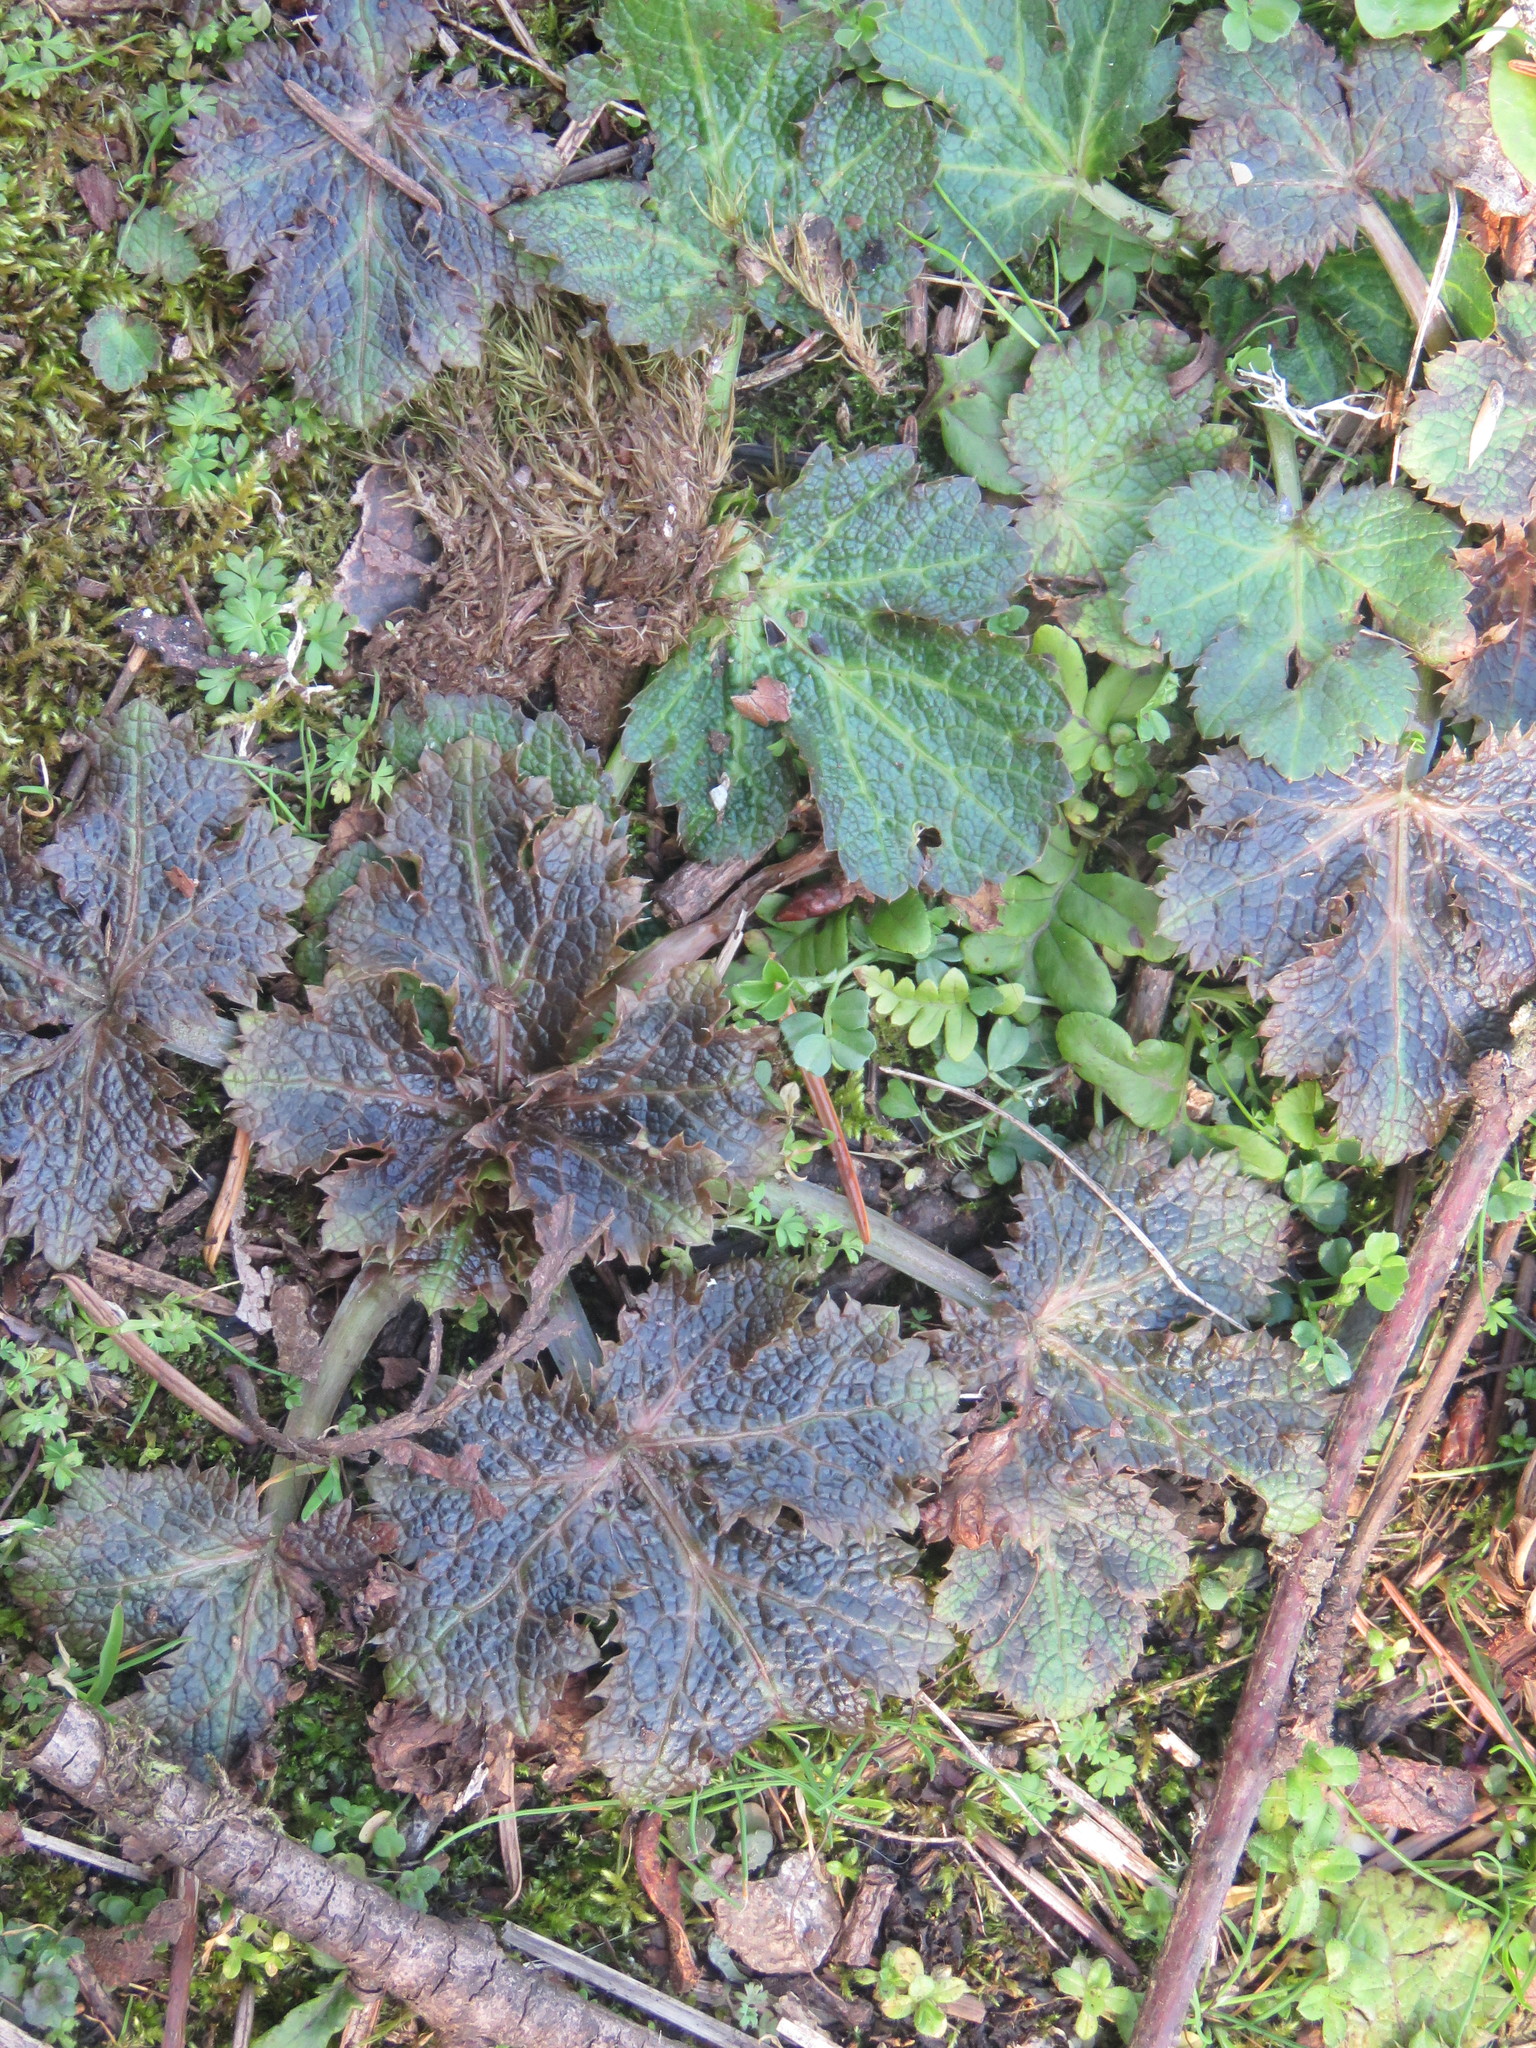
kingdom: Plantae
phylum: Tracheophyta
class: Magnoliopsida
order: Apiales
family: Apiaceae
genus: Sanicula
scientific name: Sanicula crassicaulis
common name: Western snakeroot
